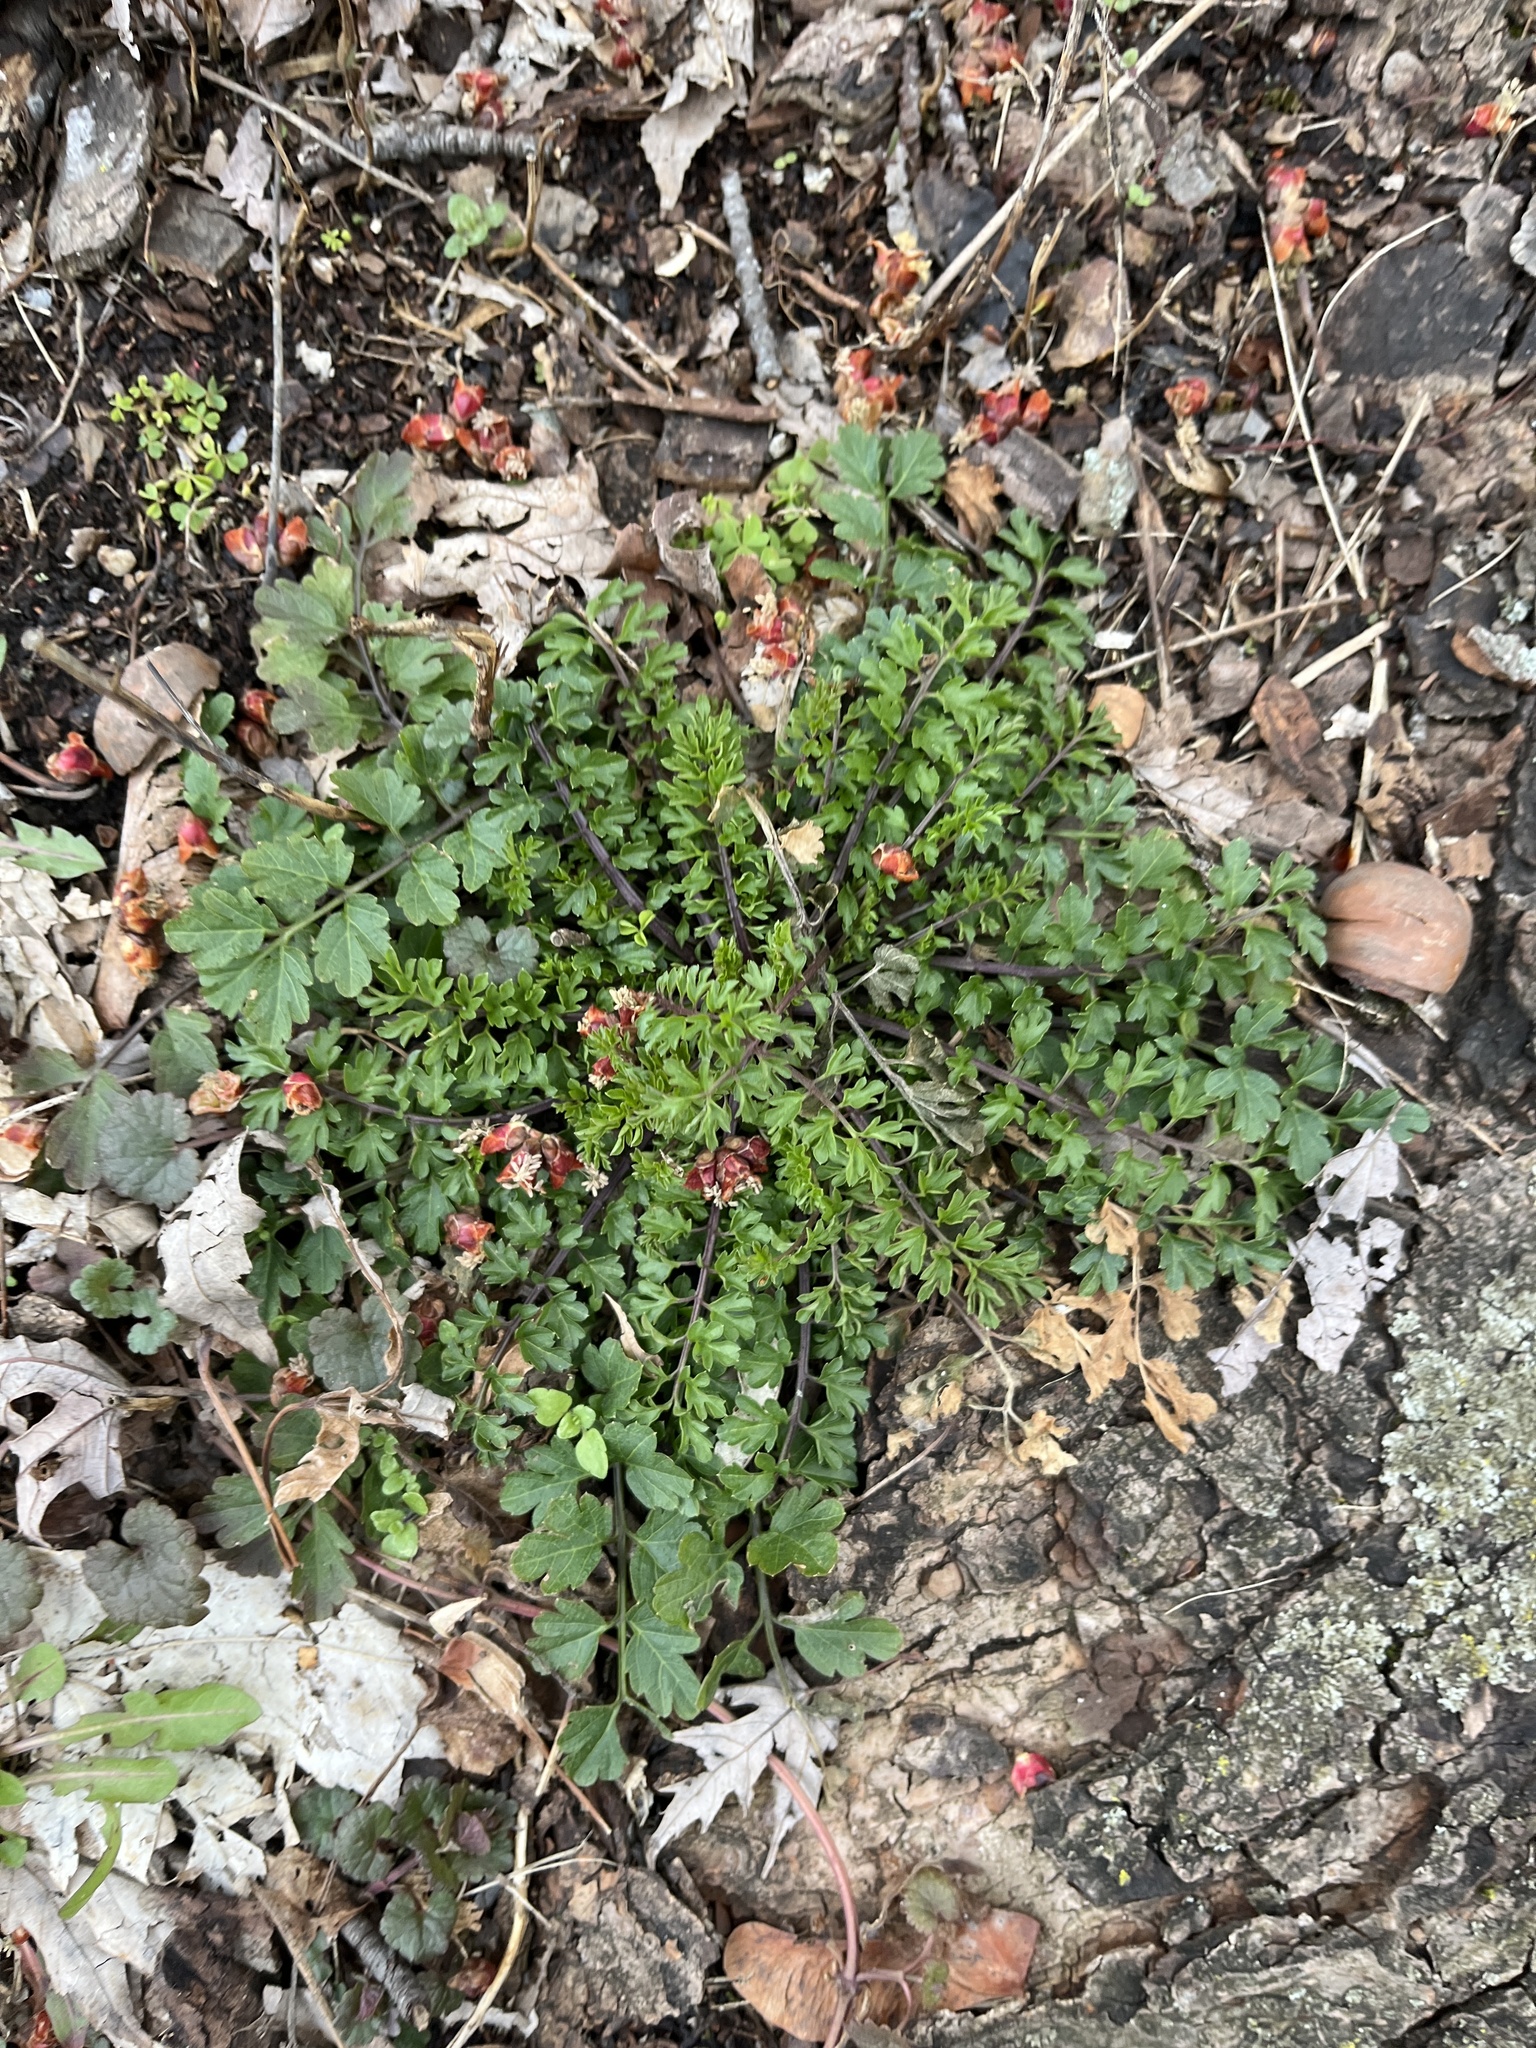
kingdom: Plantae
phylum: Tracheophyta
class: Magnoliopsida
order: Brassicales
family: Brassicaceae
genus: Cardamine
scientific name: Cardamine impatiens
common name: Narrow-leaved bitter-cress
